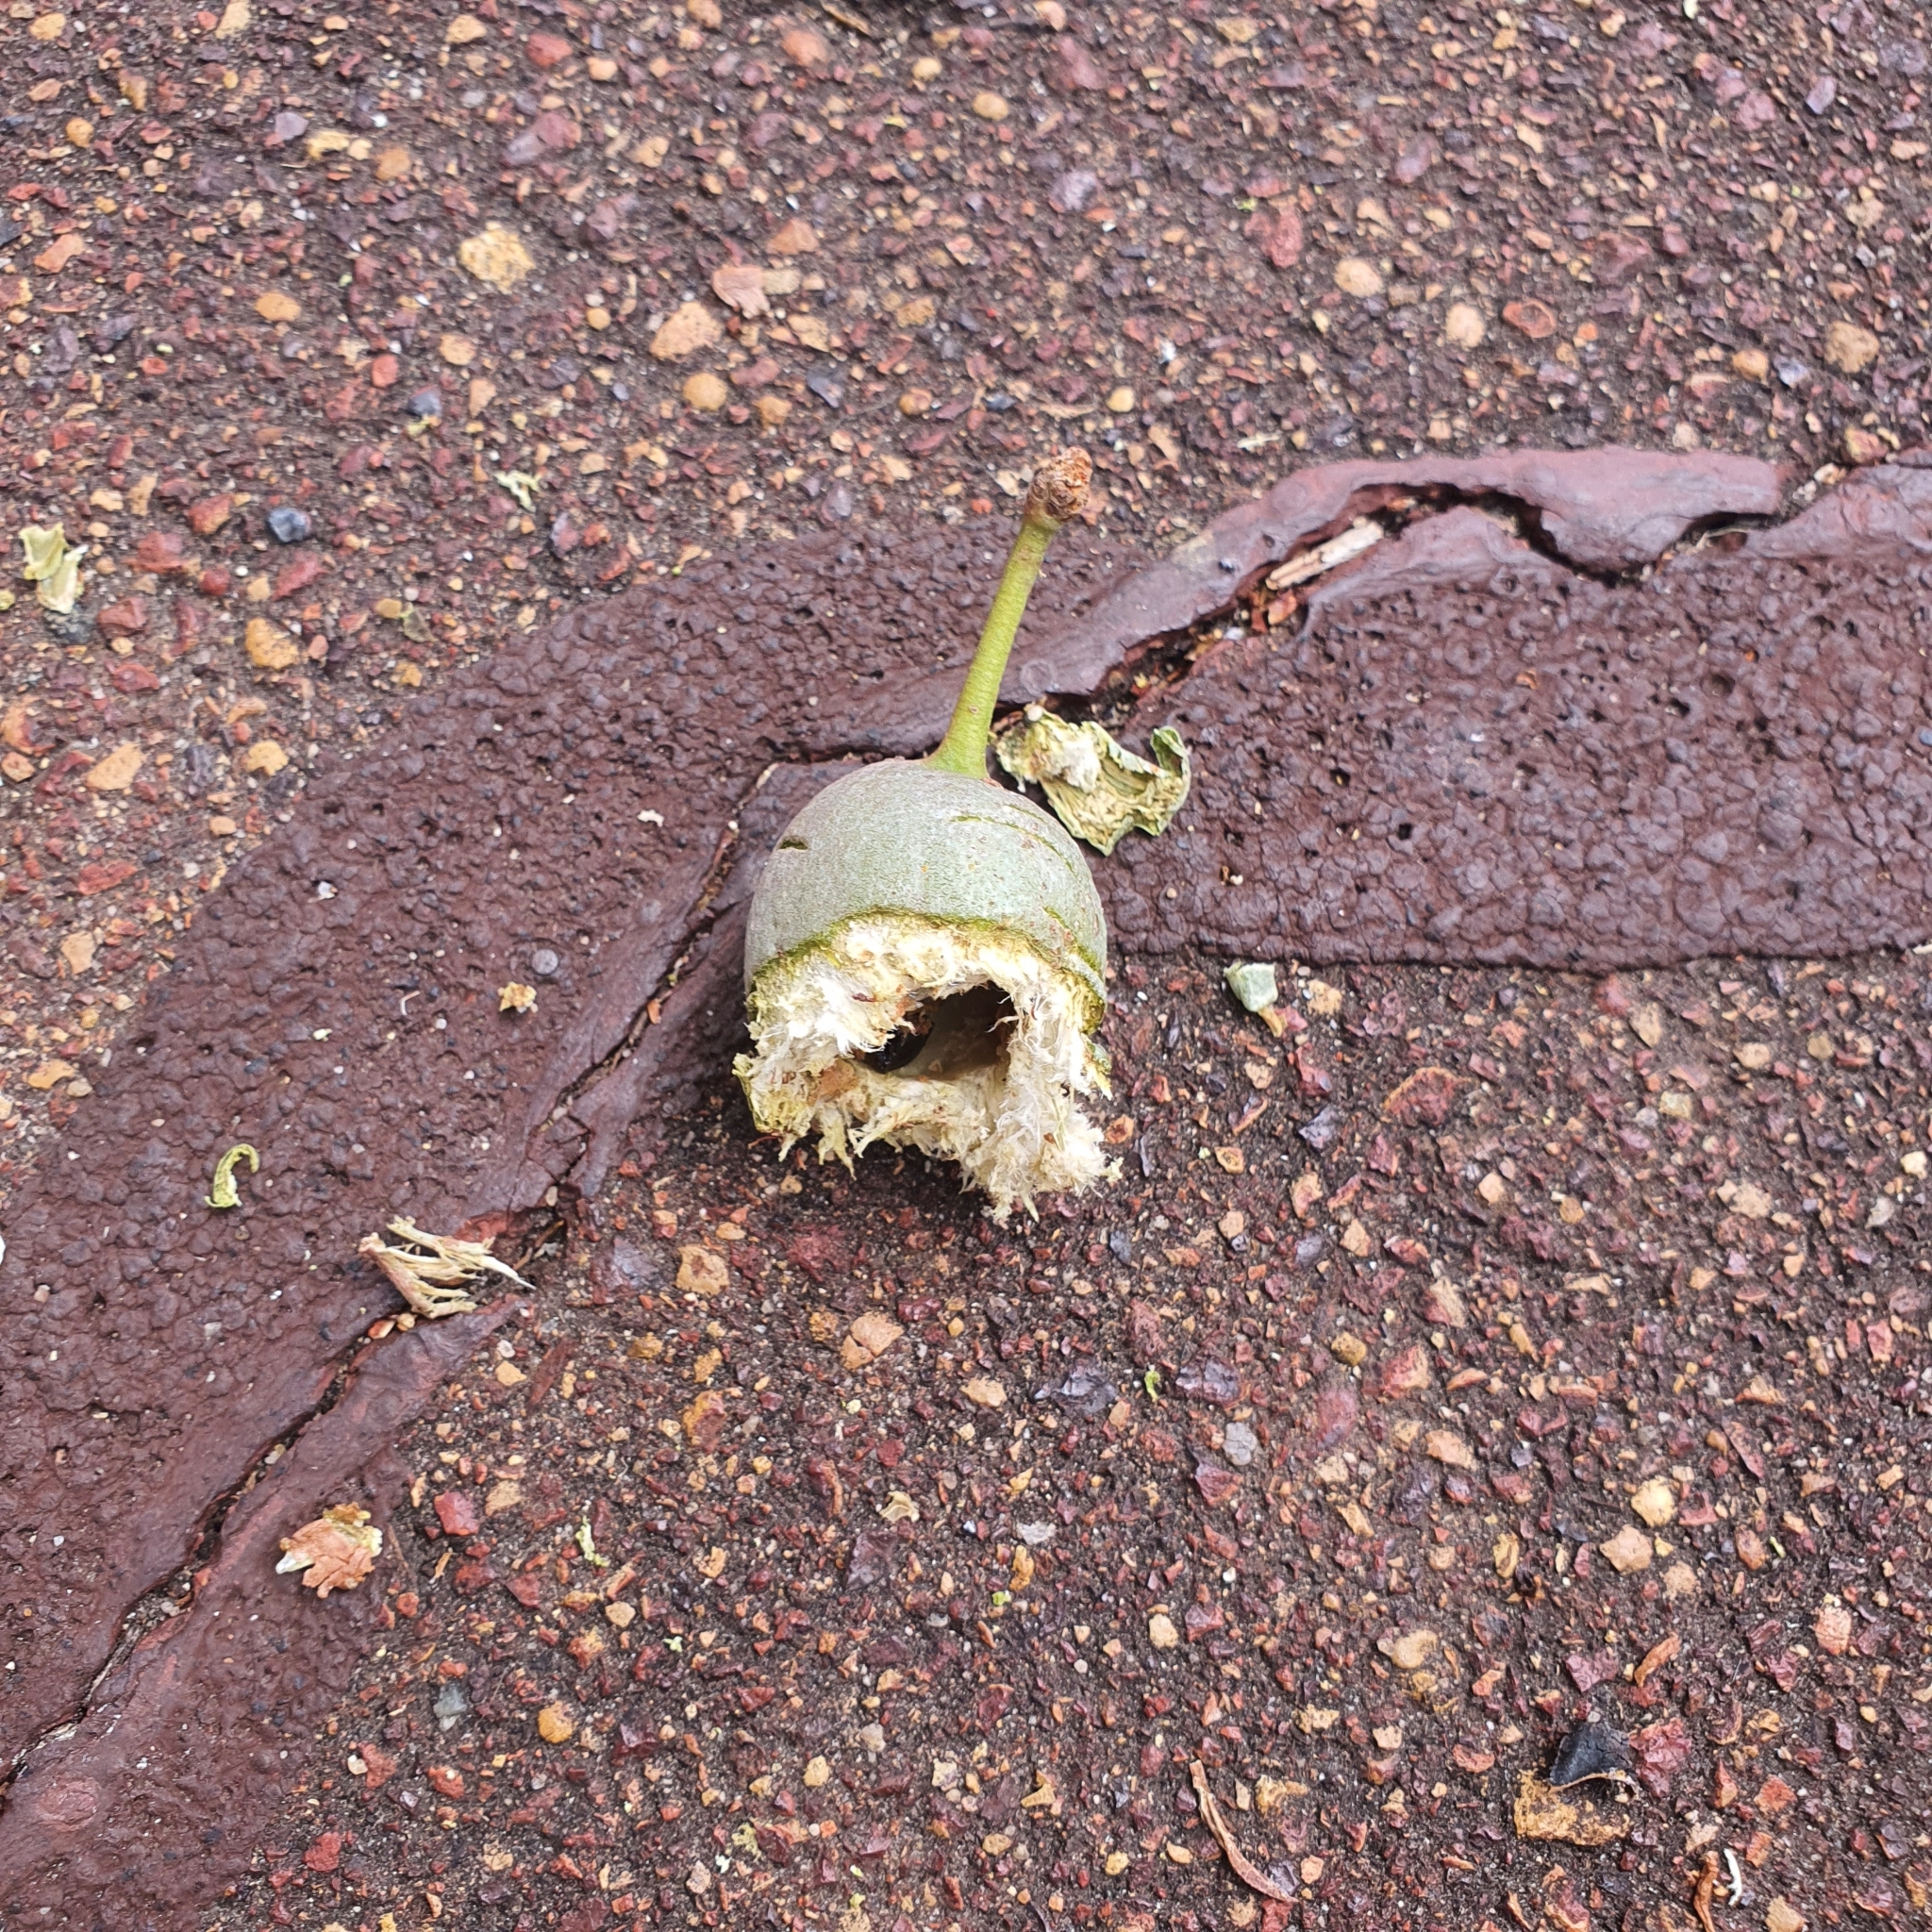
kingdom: Animalia
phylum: Chordata
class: Aves
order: Psittaciformes
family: Psittacidae
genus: Calyptorhynchus
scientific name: Calyptorhynchus banksii
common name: Red-tailed black cockatoo
